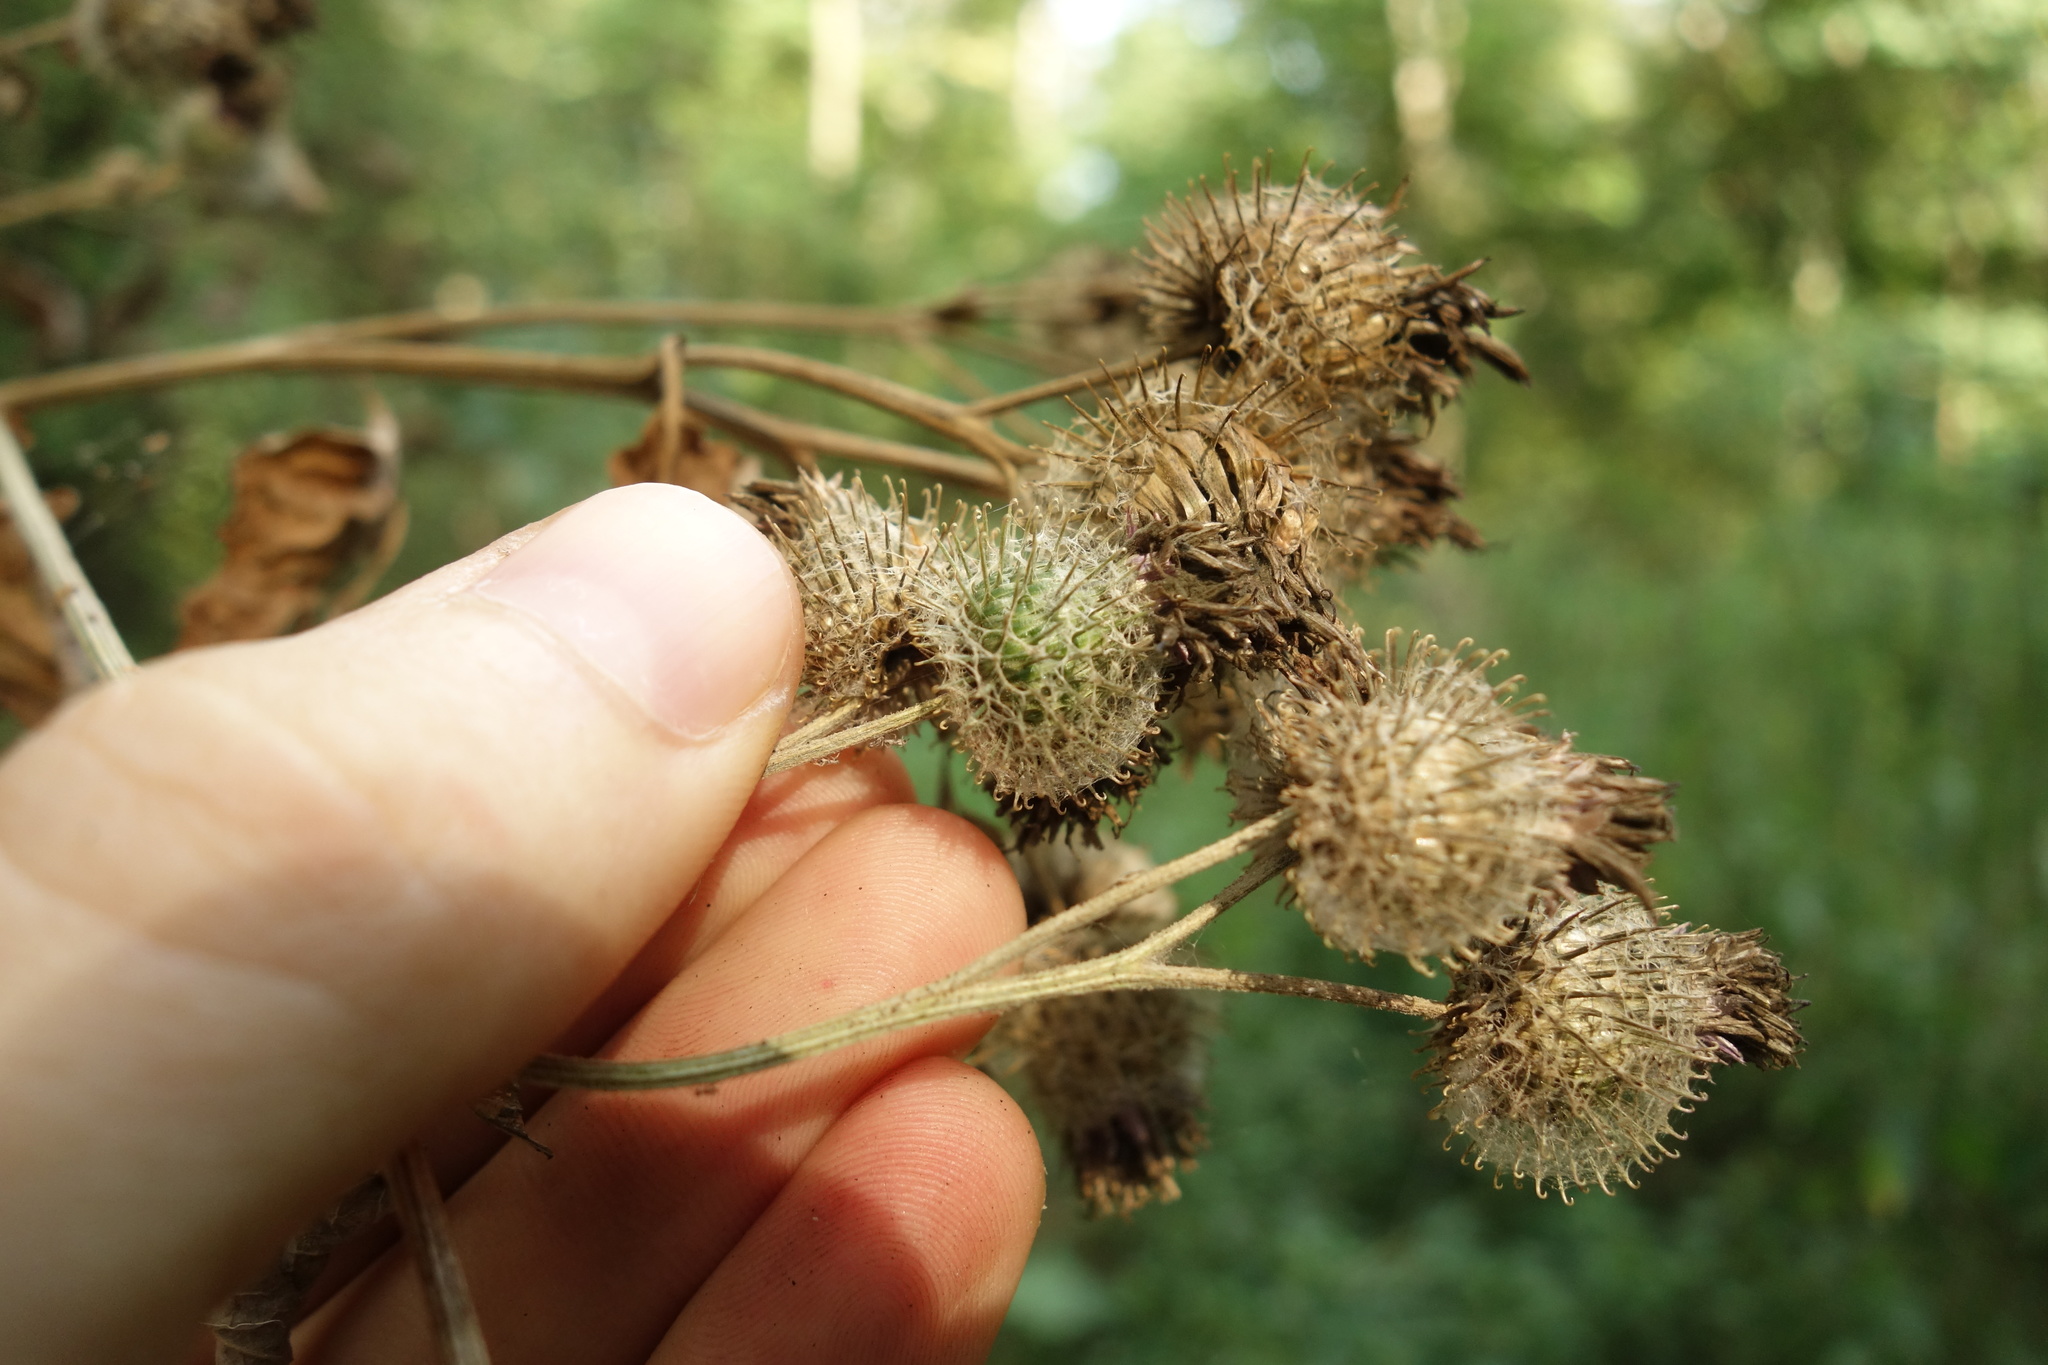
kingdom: Plantae
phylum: Tracheophyta
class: Magnoliopsida
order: Asterales
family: Asteraceae
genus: Arctium
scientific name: Arctium tomentosum
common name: Woolly burdock
